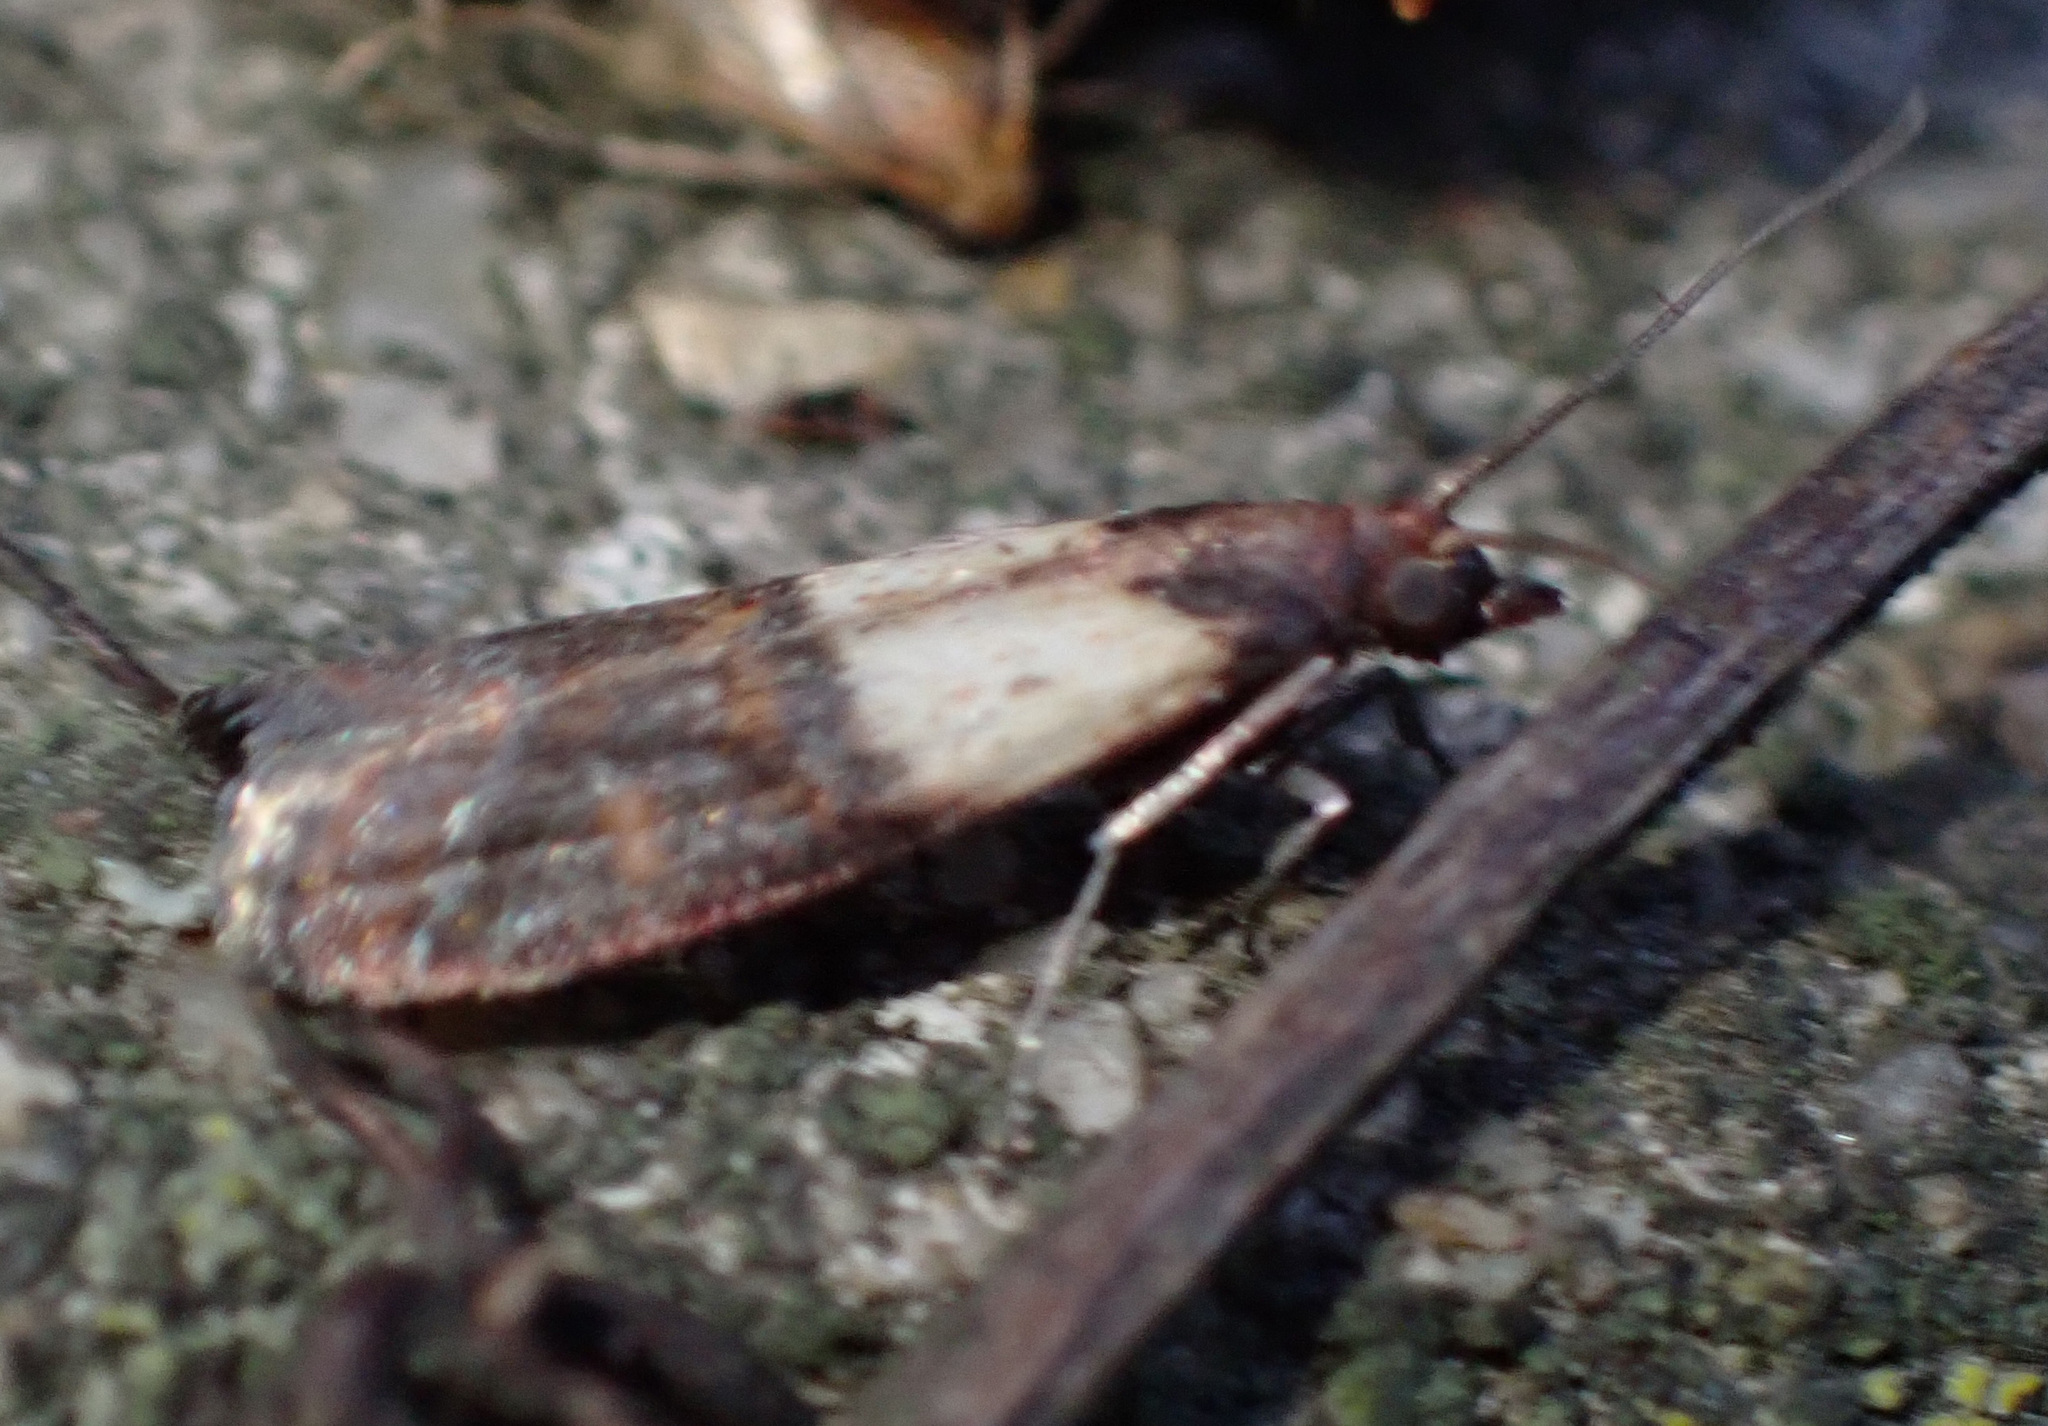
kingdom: Animalia
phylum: Arthropoda
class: Insecta
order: Lepidoptera
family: Pyralidae
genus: Plodia
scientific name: Plodia interpunctella
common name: Indian meal moth
